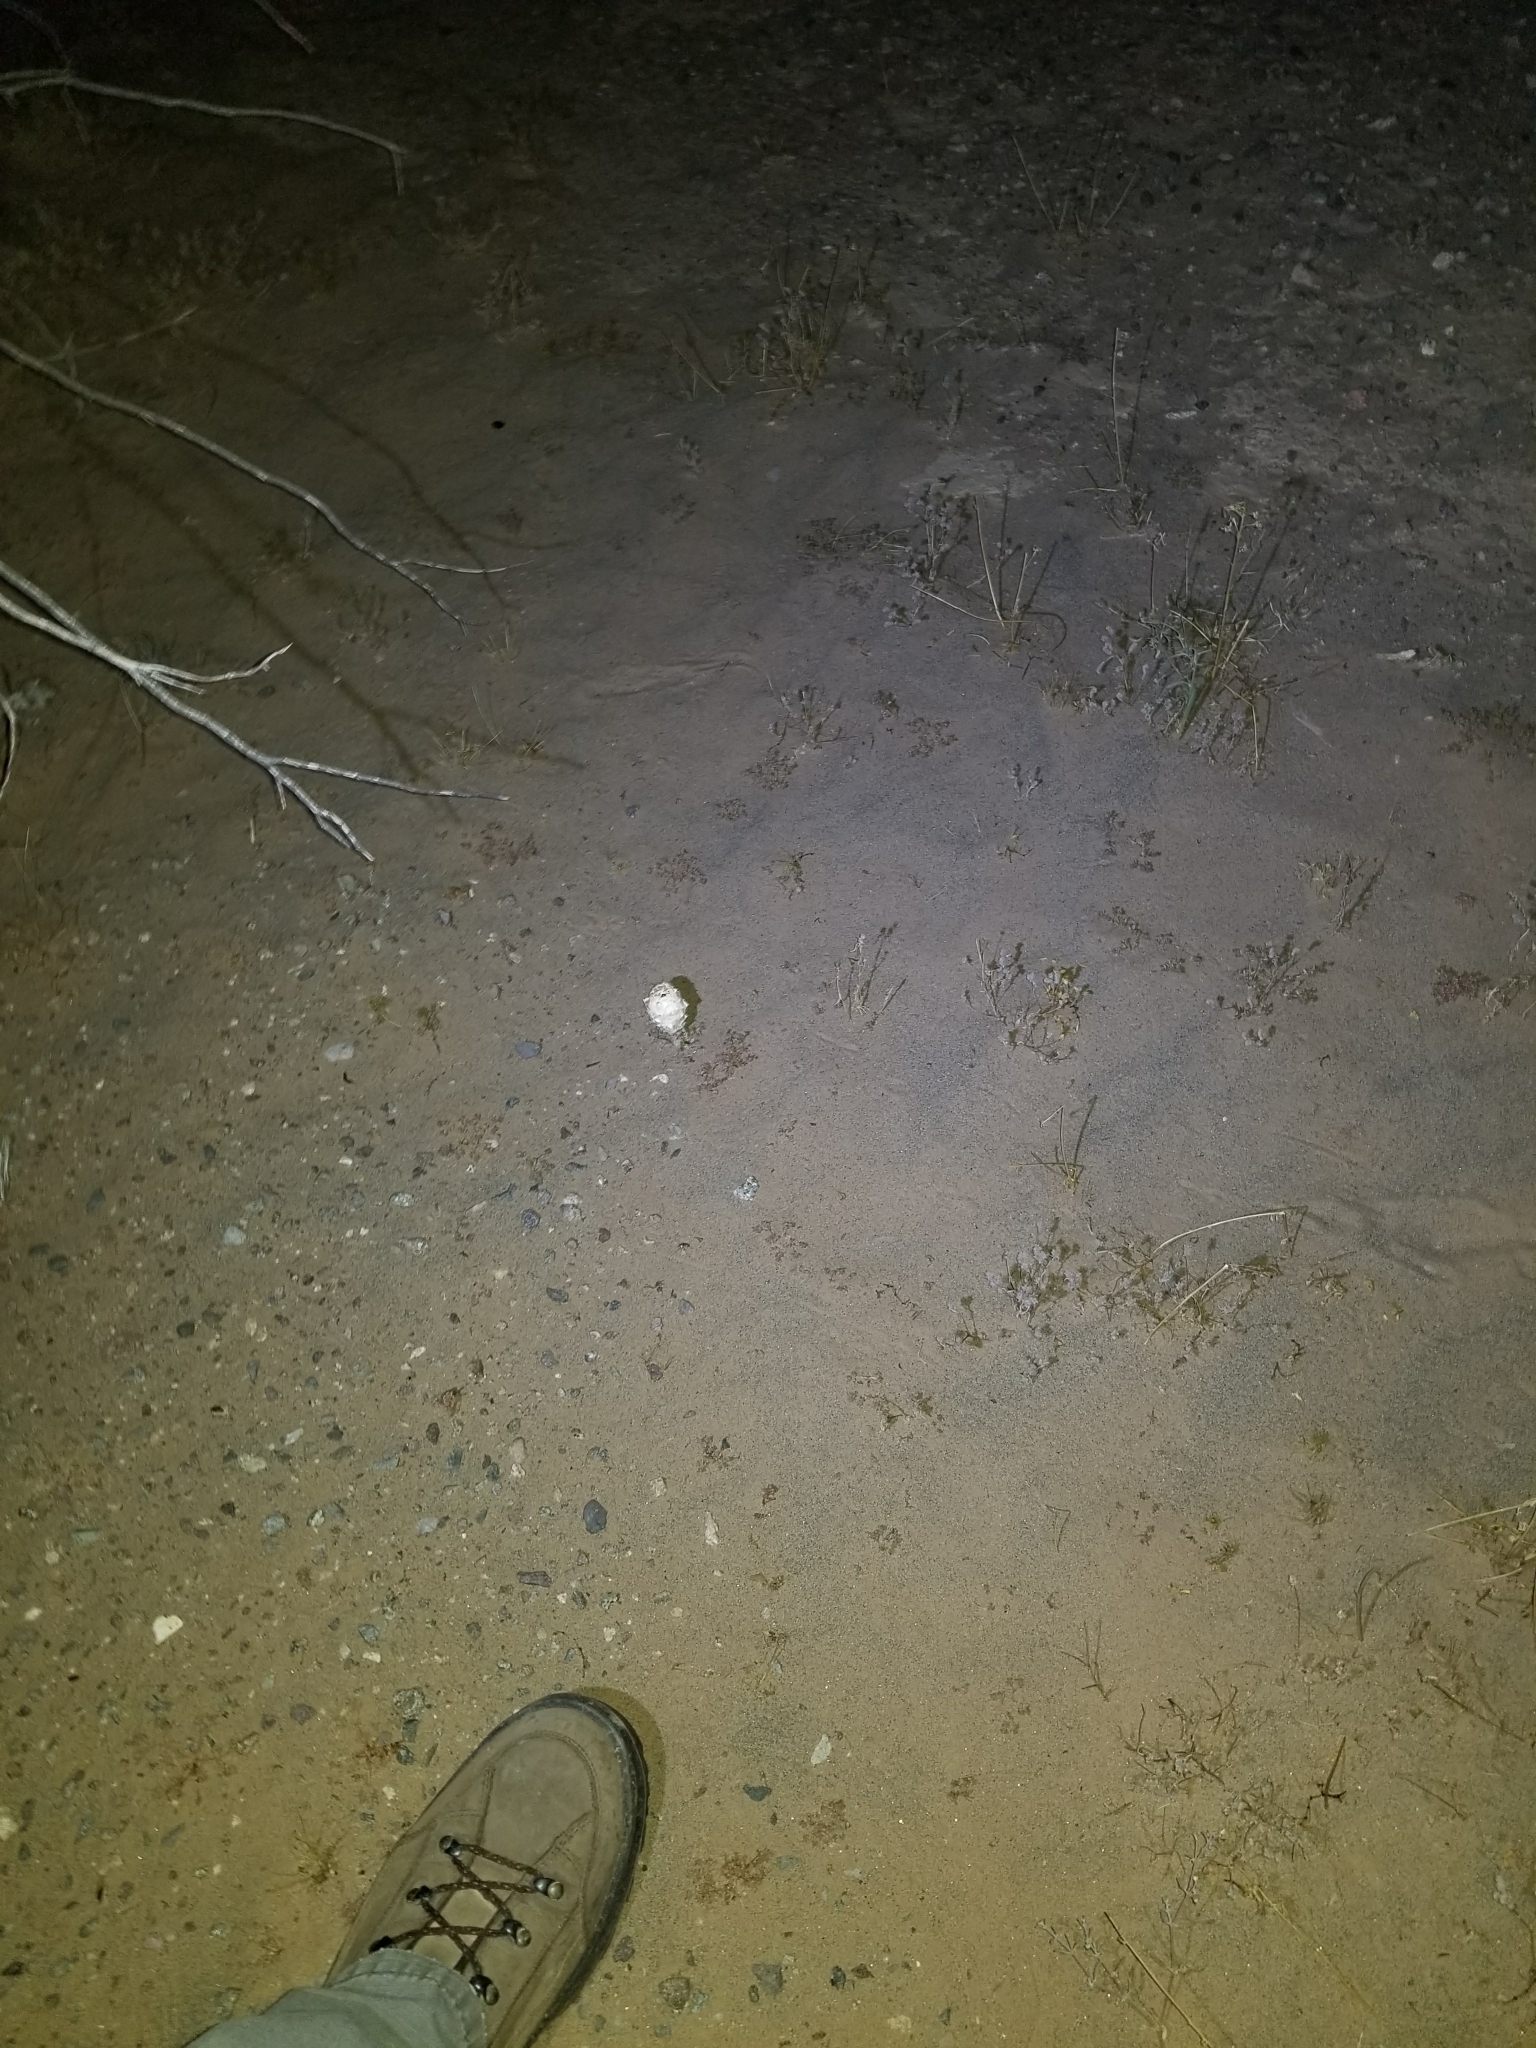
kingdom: Fungi
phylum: Basidiomycota
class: Agaricomycetes
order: Agaricales
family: Agaricaceae
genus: Podaxis
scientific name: Podaxis pistillaris
